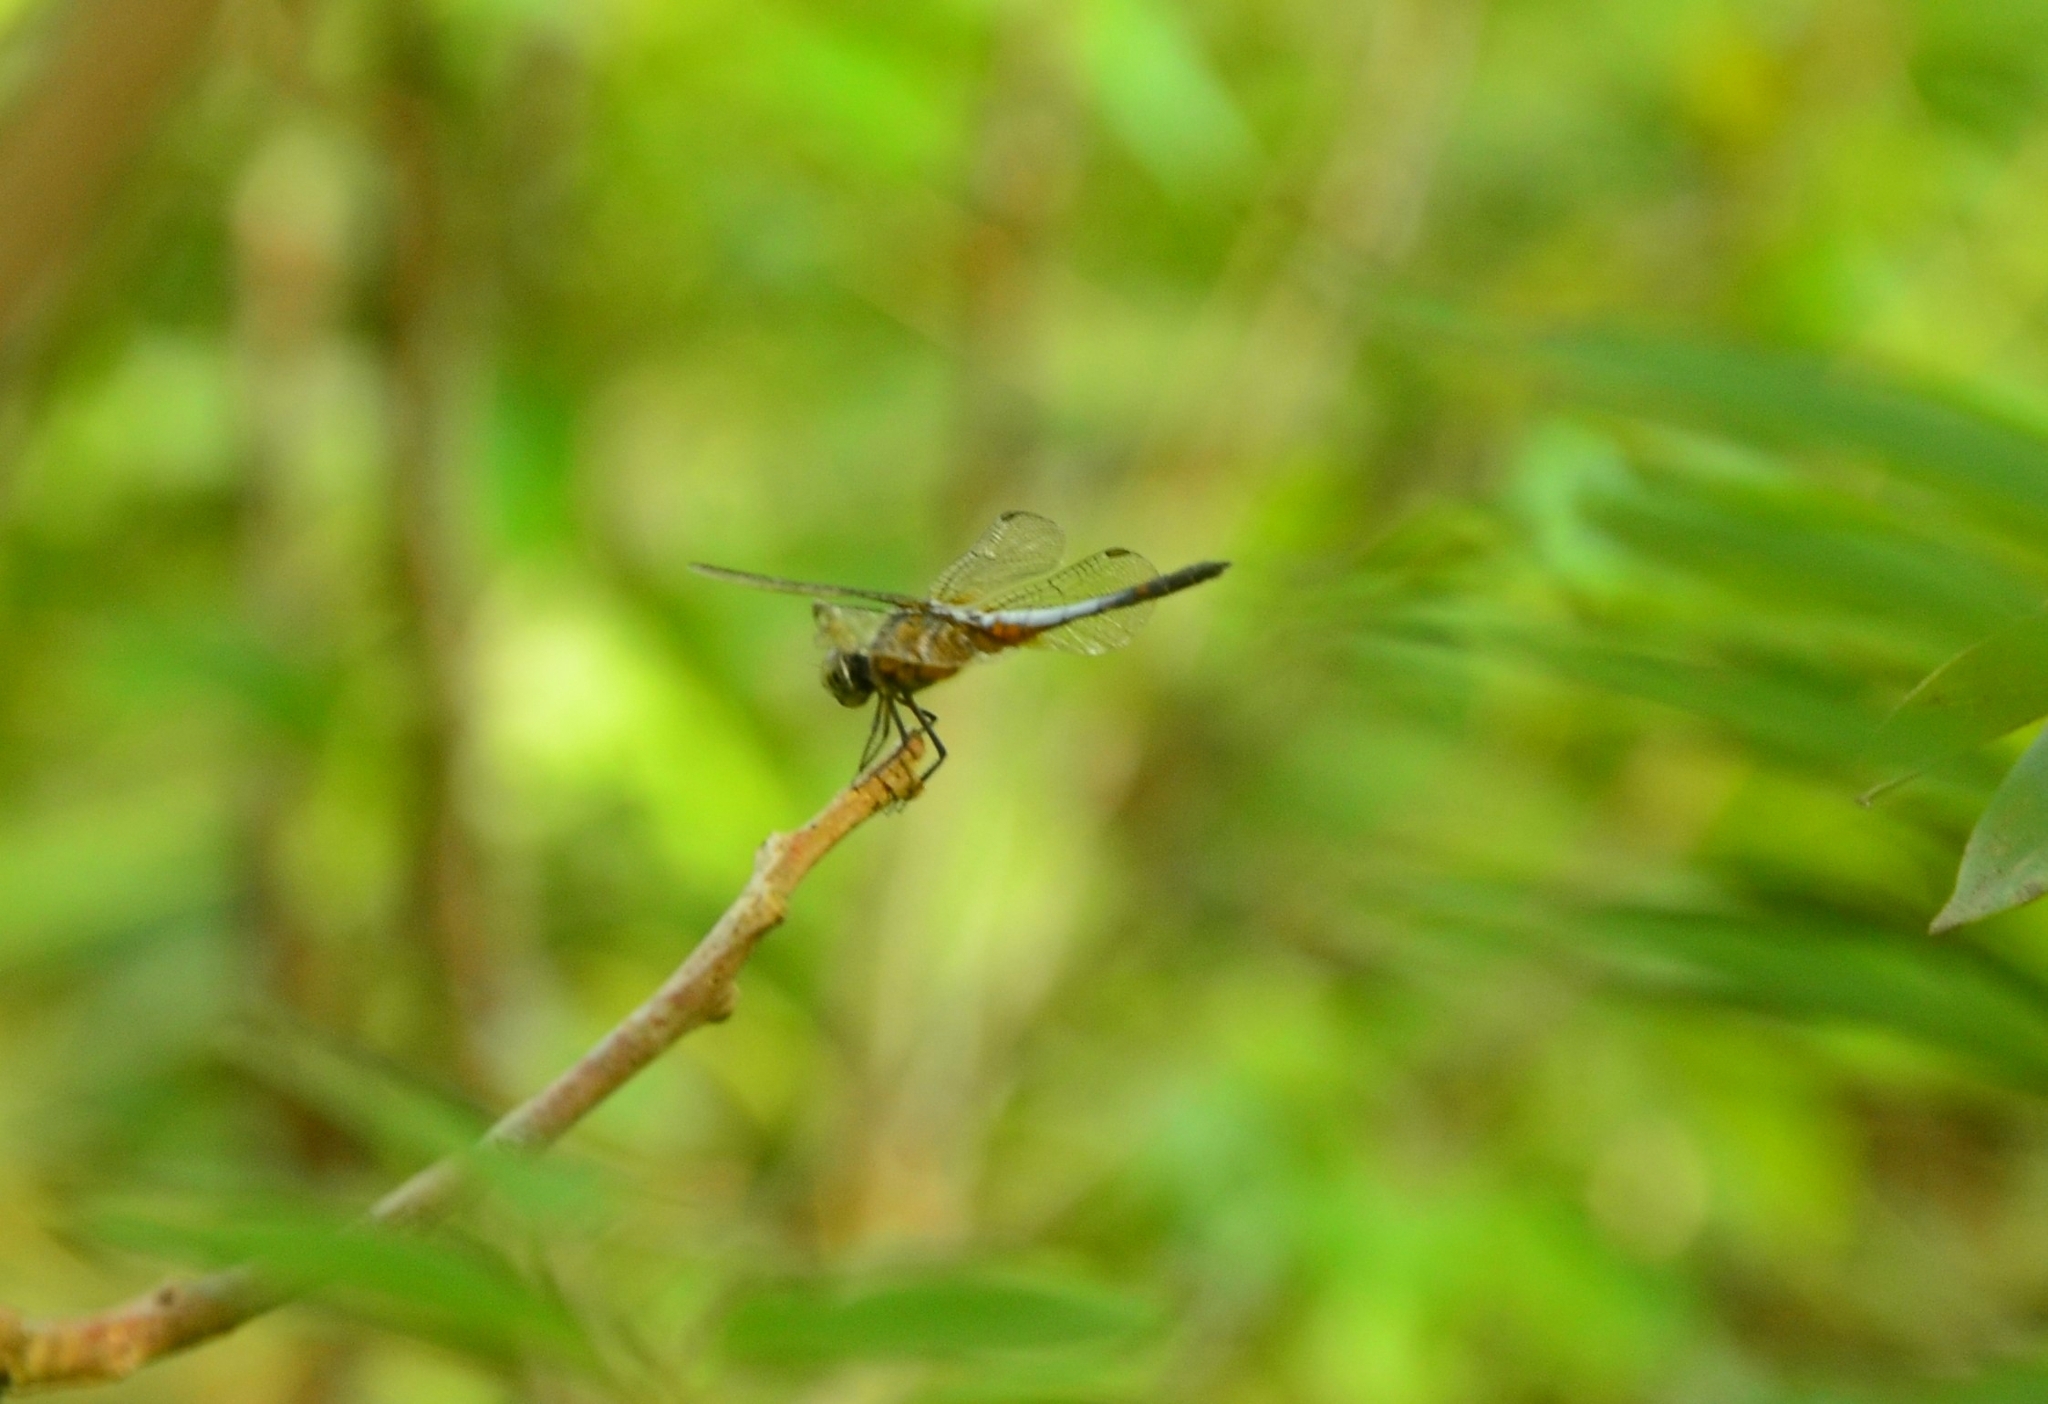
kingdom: Animalia
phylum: Arthropoda
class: Insecta
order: Odonata
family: Libellulidae
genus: Brachydiplax
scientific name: Brachydiplax chalybea
